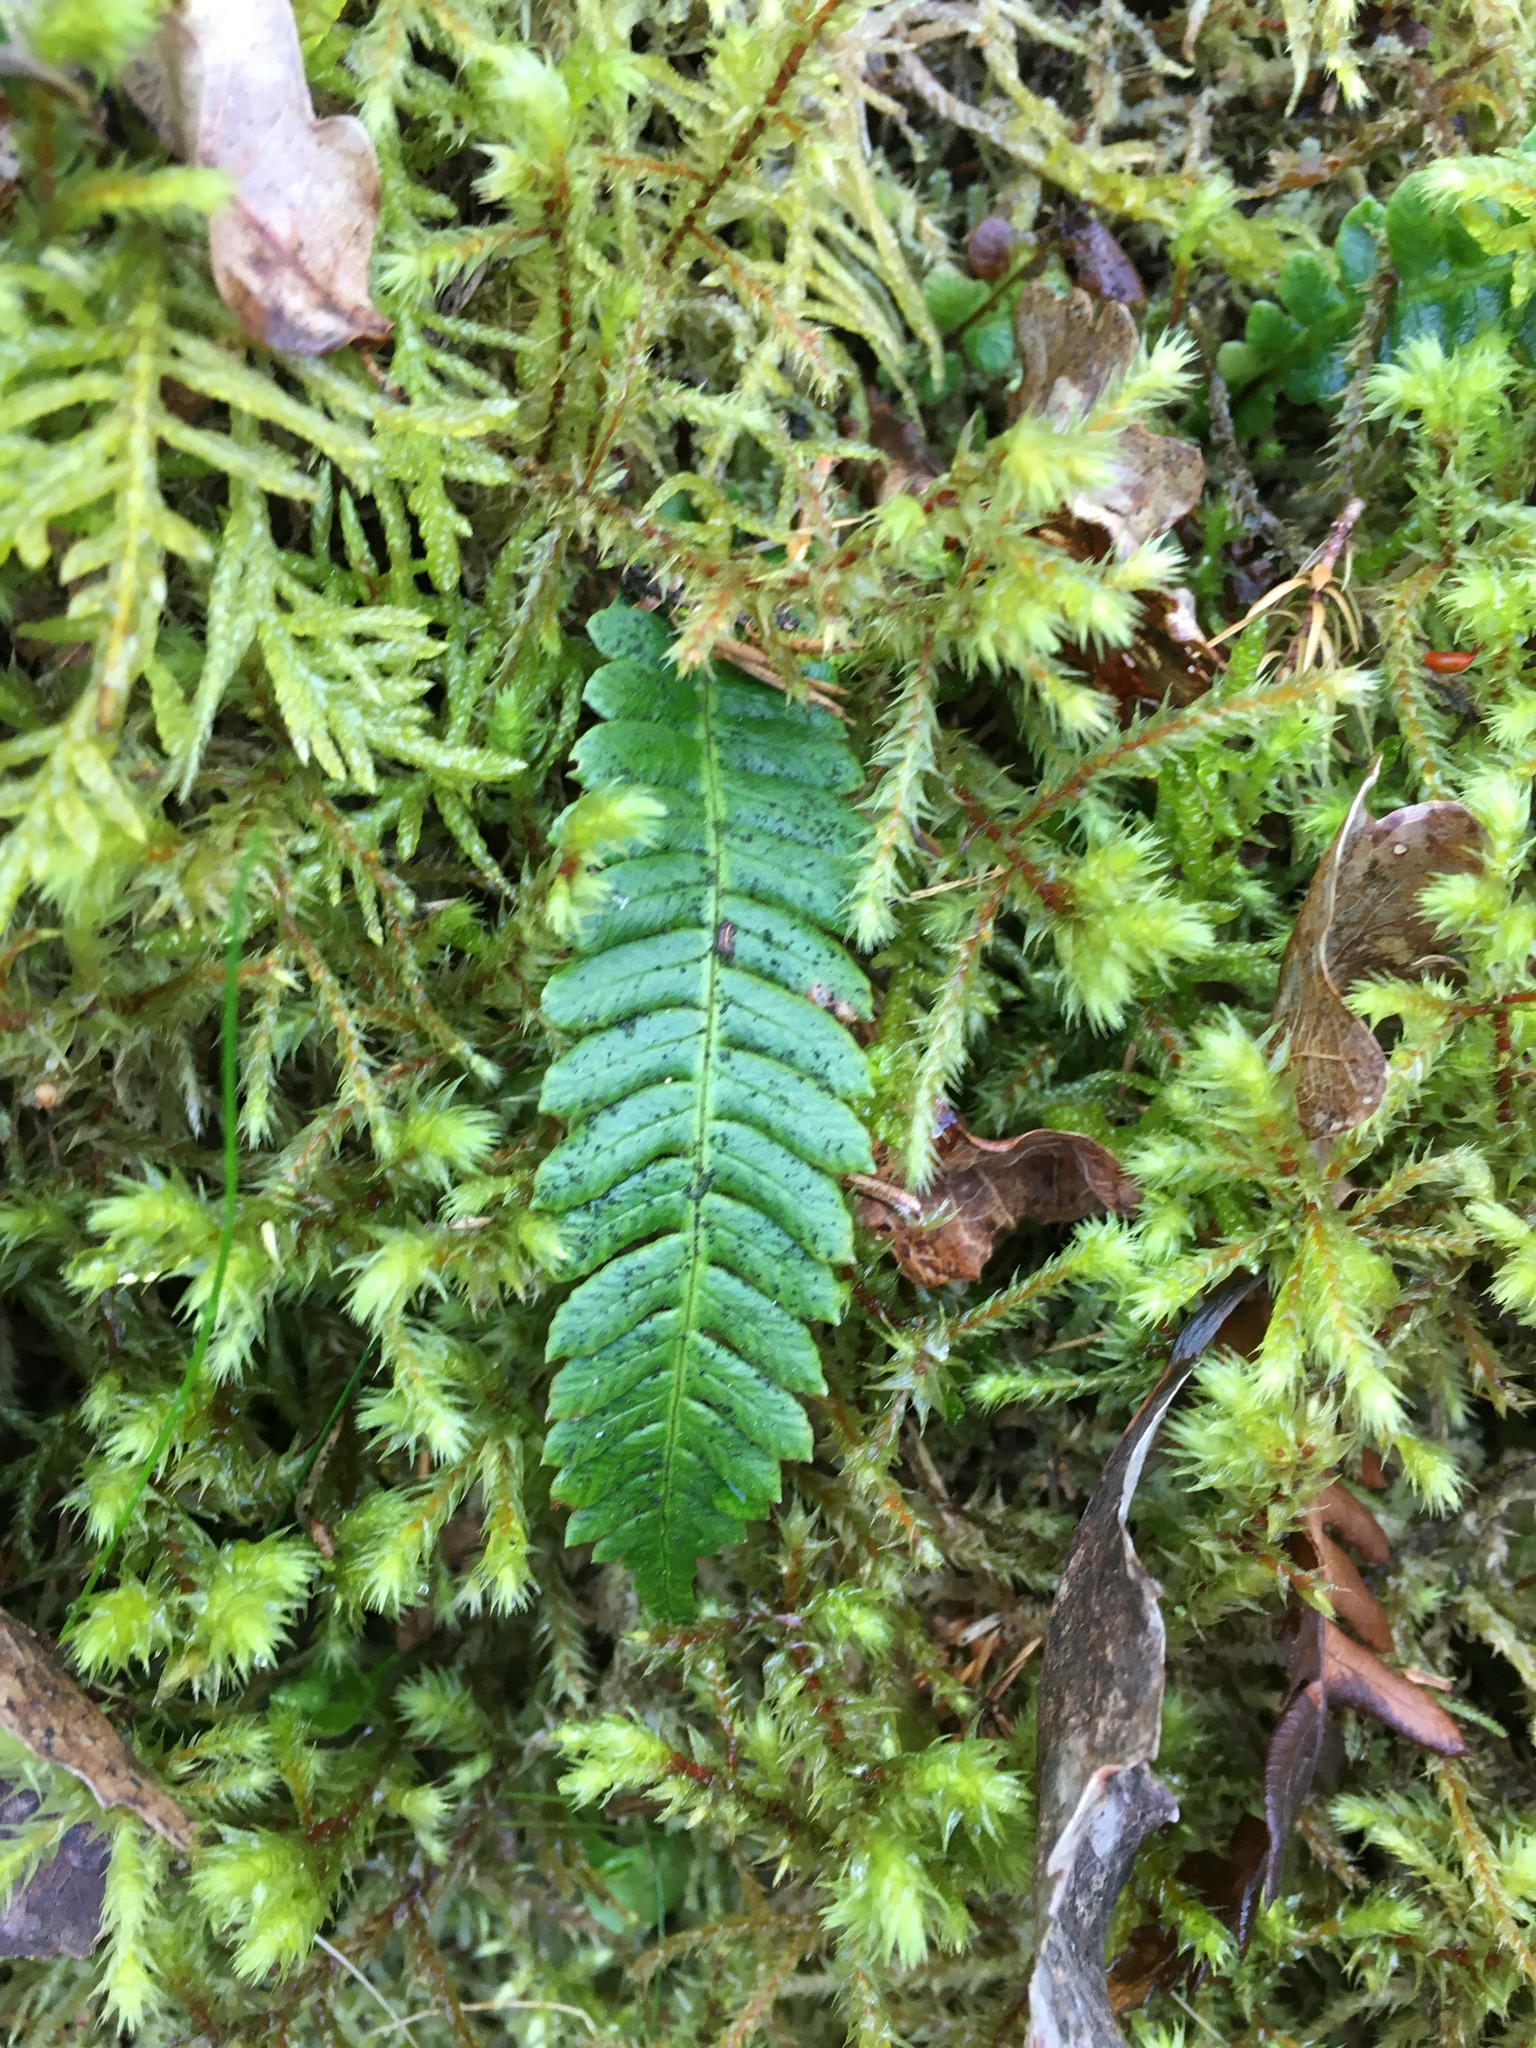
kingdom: Plantae
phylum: Tracheophyta
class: Polypodiopsida
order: Polypodiales
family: Blechnaceae
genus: Struthiopteris
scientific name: Struthiopteris spicant
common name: Deer fern
